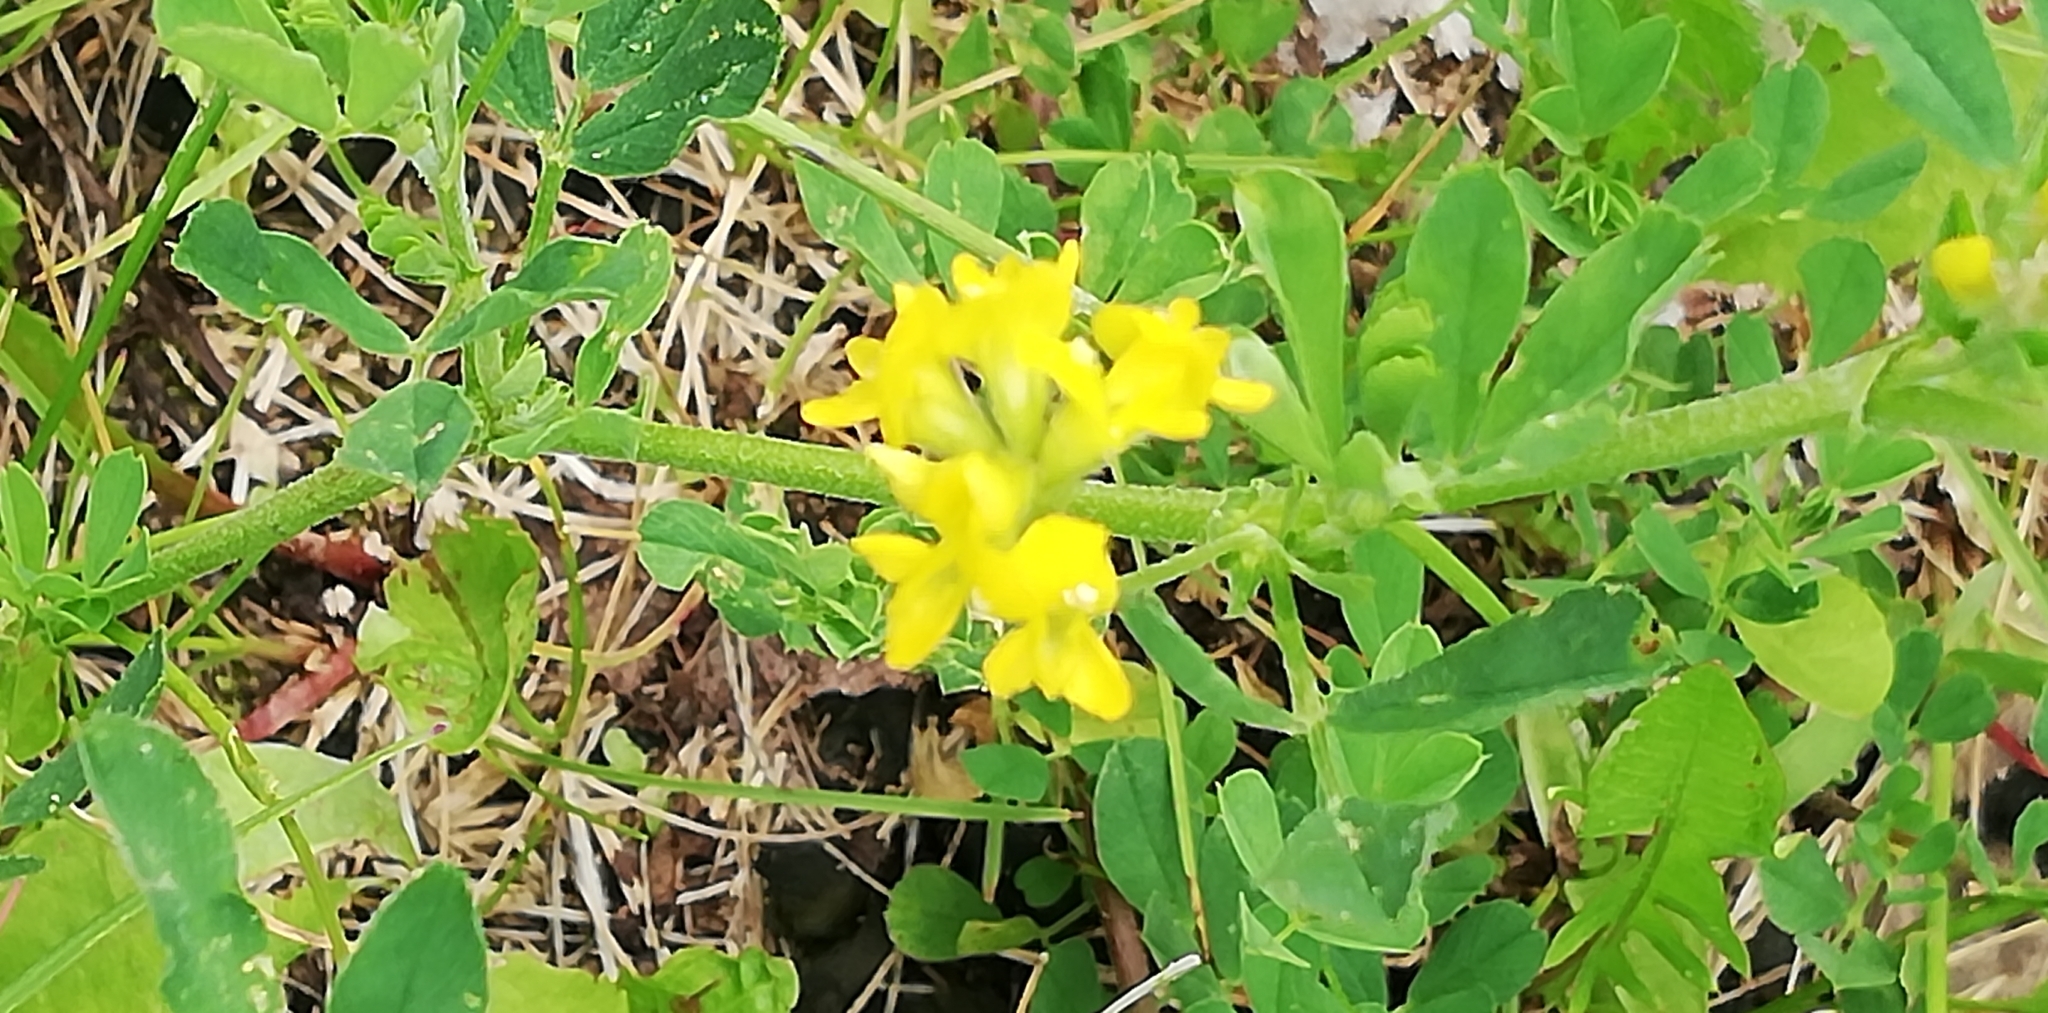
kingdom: Plantae
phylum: Tracheophyta
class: Magnoliopsida
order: Fabales
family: Fabaceae
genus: Medicago
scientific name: Medicago falcata
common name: Sickle medick
